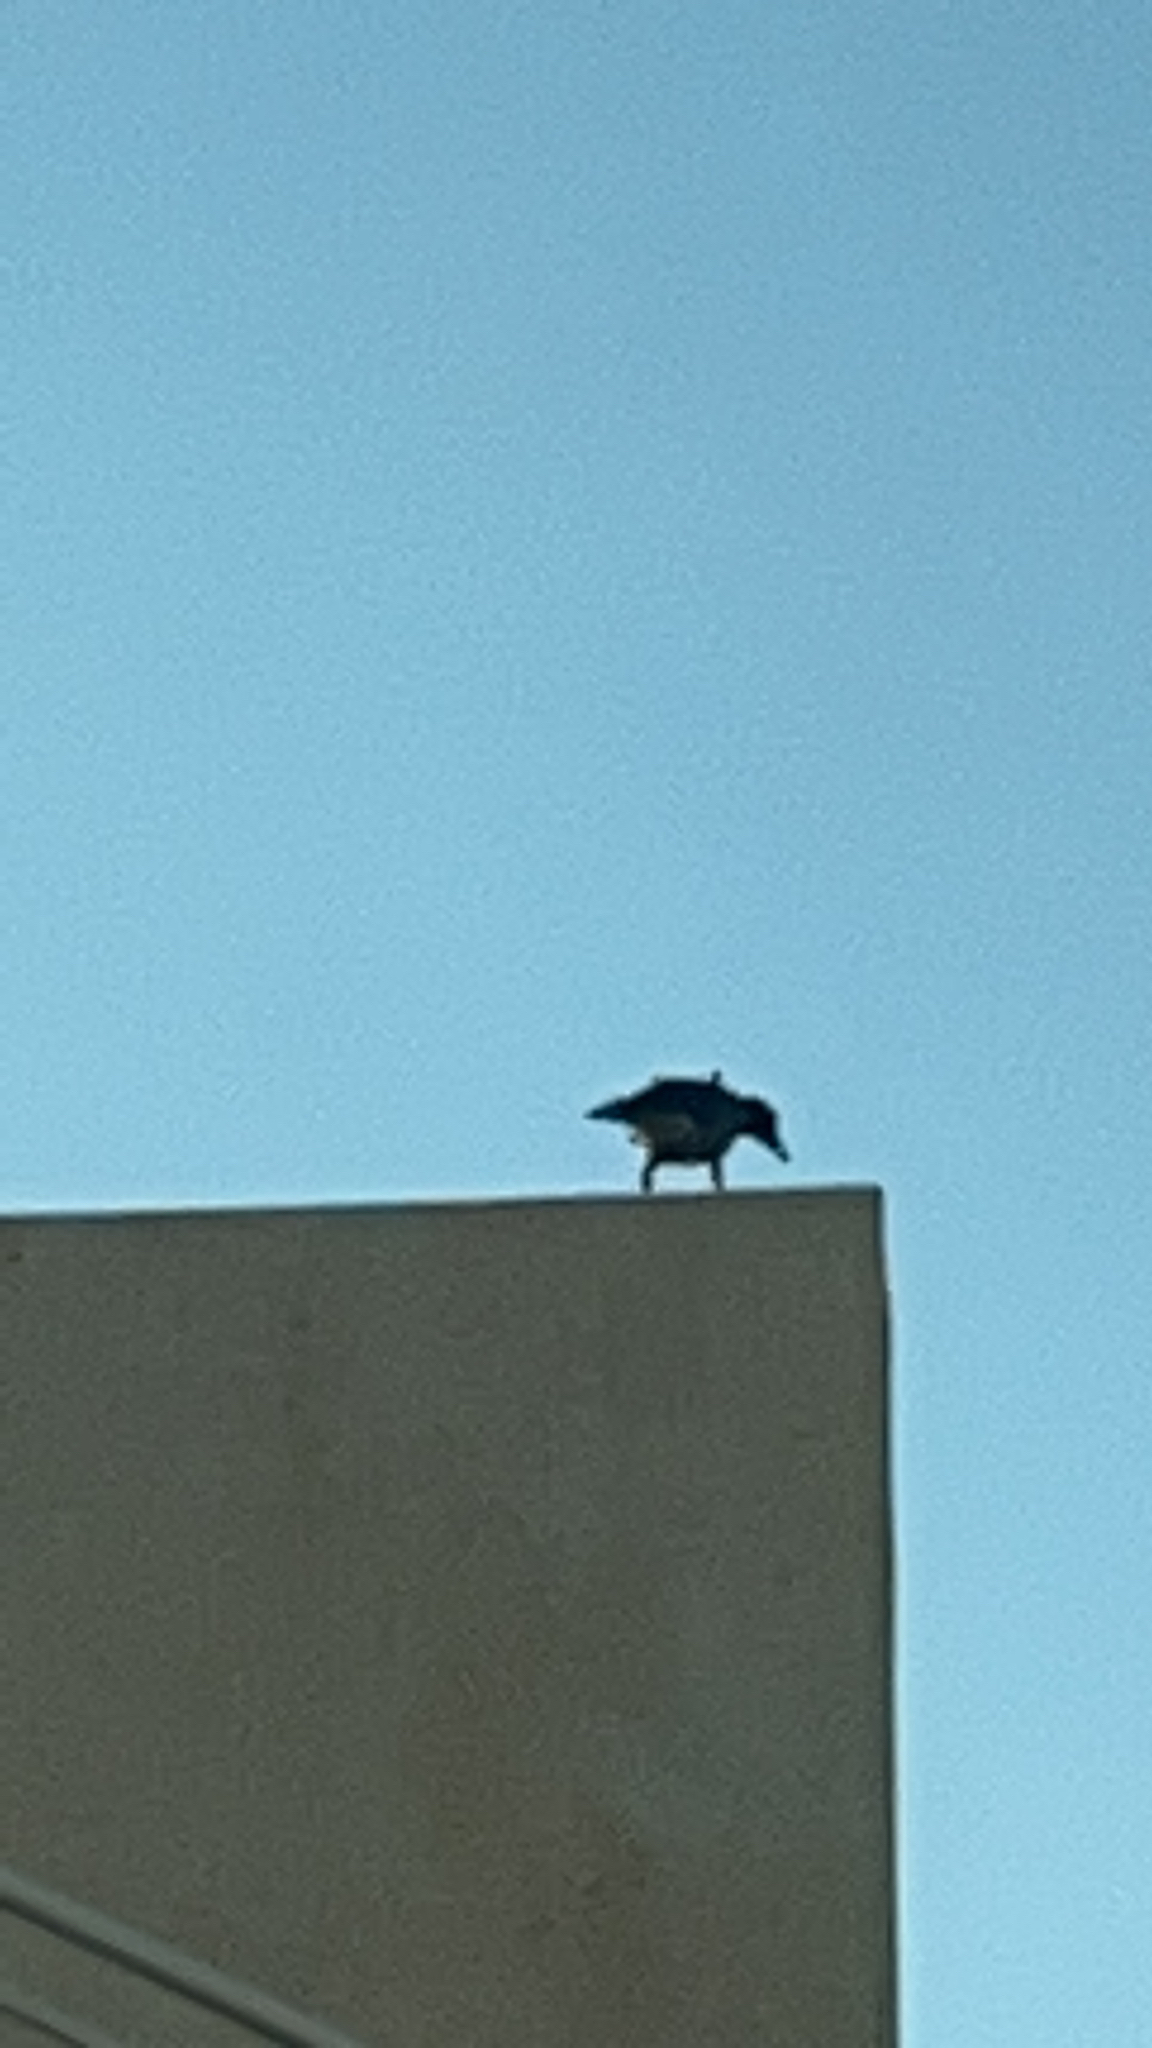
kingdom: Animalia
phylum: Chordata
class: Aves
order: Passeriformes
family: Corvidae
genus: Corvus
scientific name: Corvus cornix
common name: Hooded crow
